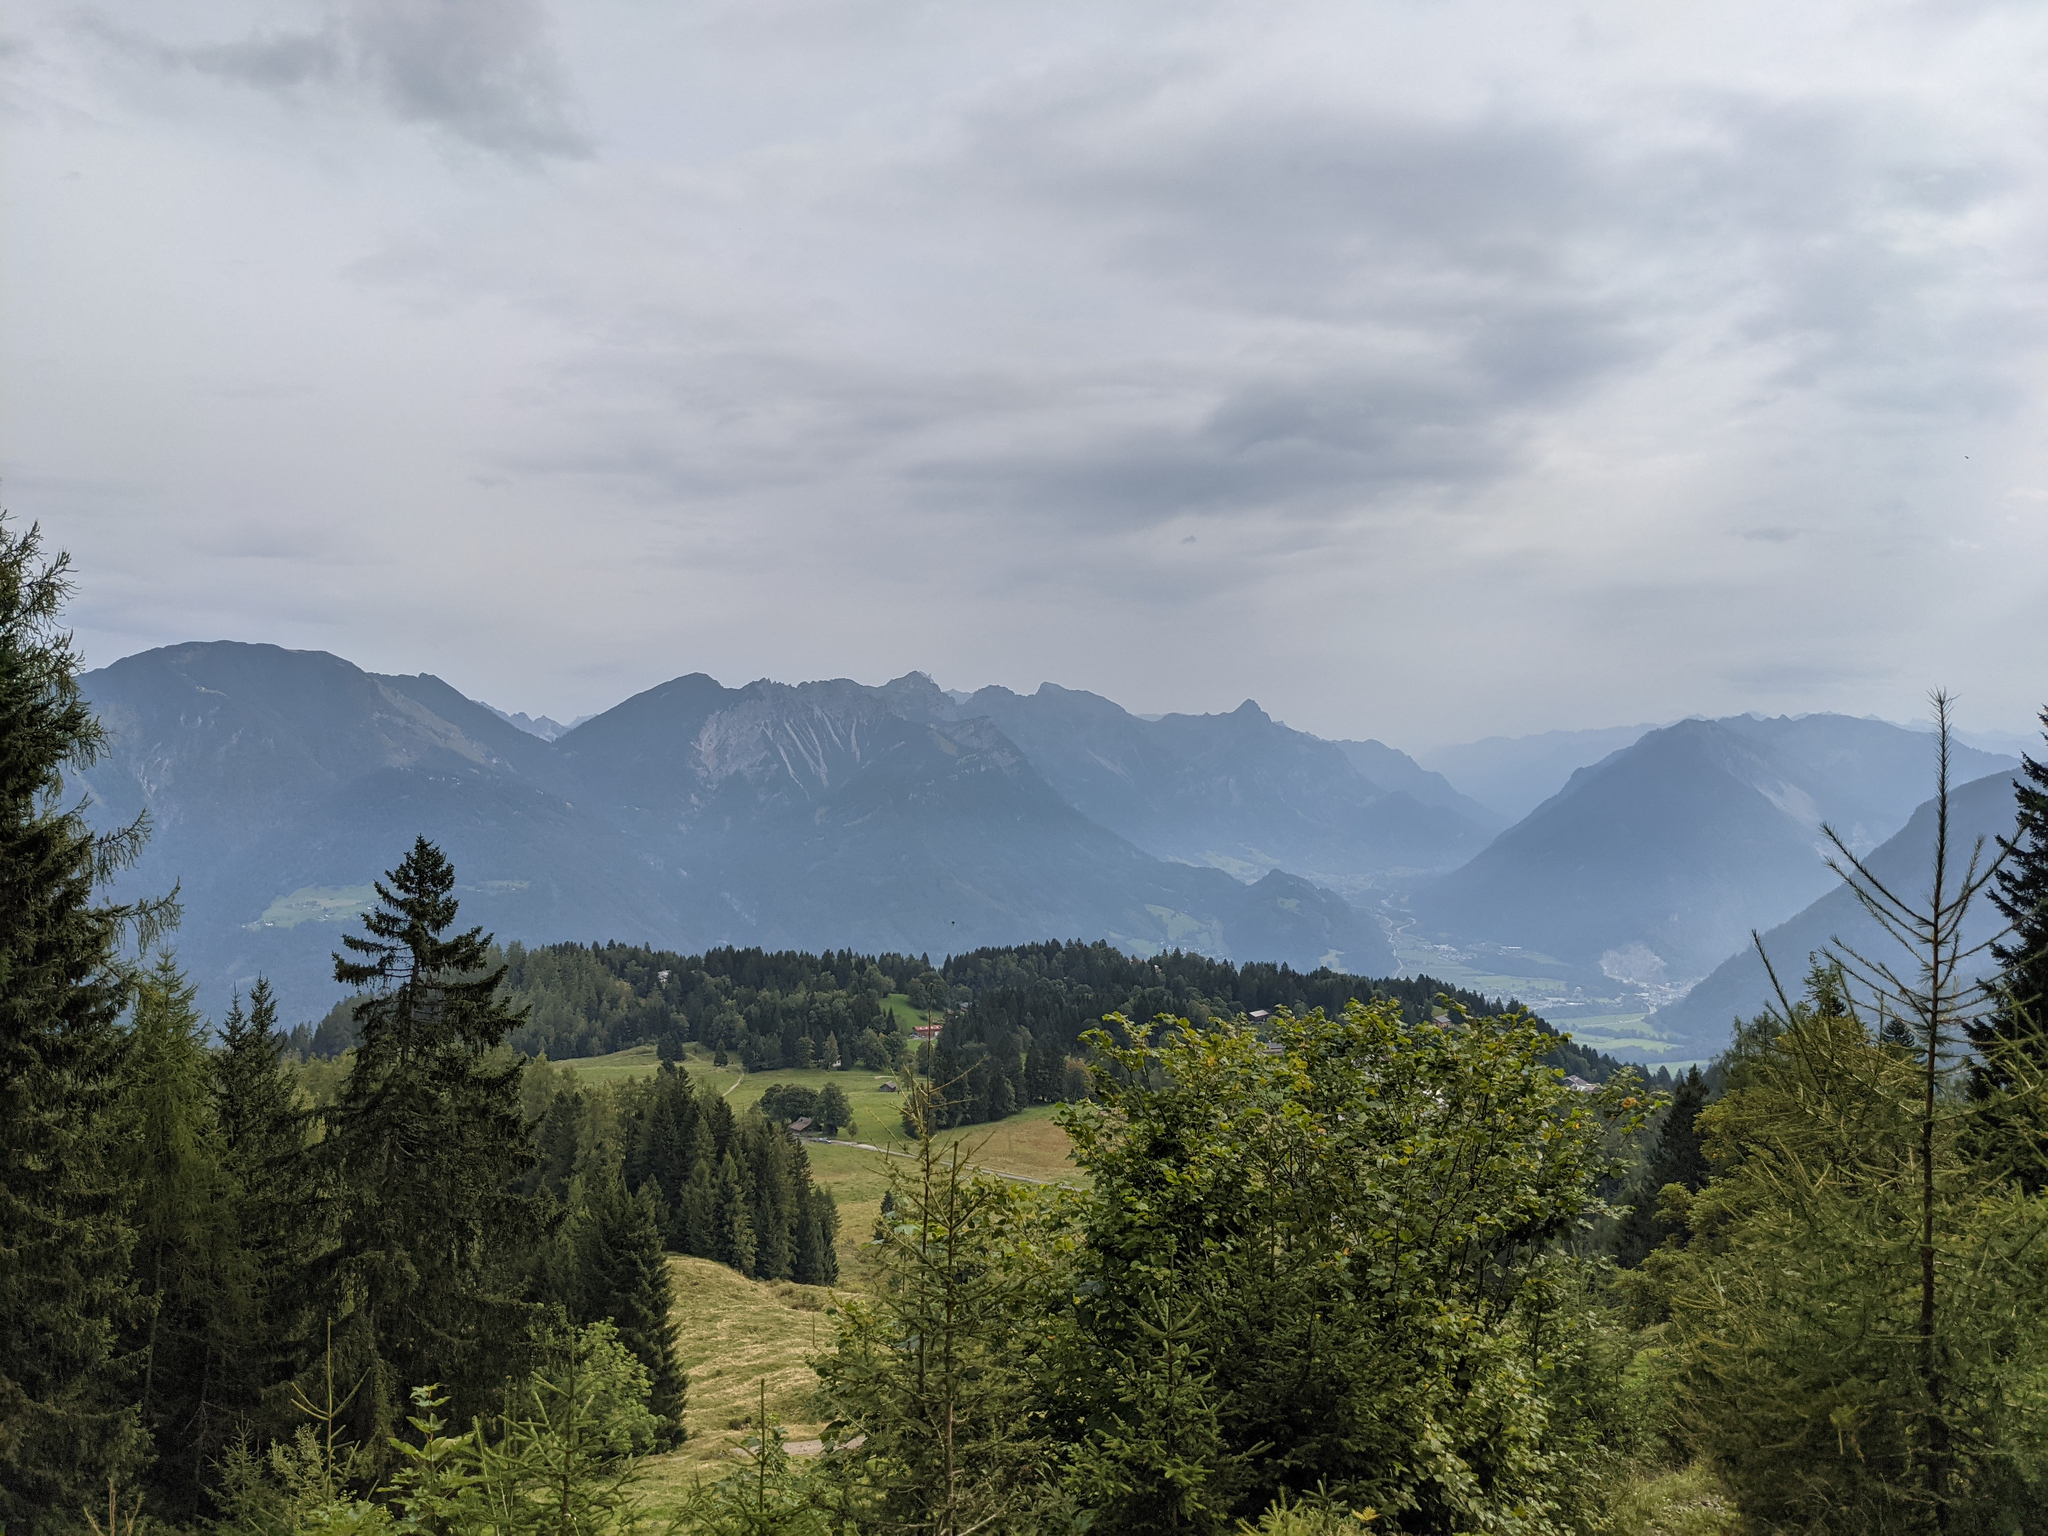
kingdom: Plantae
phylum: Tracheophyta
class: Pinopsida
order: Pinales
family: Pinaceae
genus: Picea
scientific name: Picea abies
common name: Norway spruce
